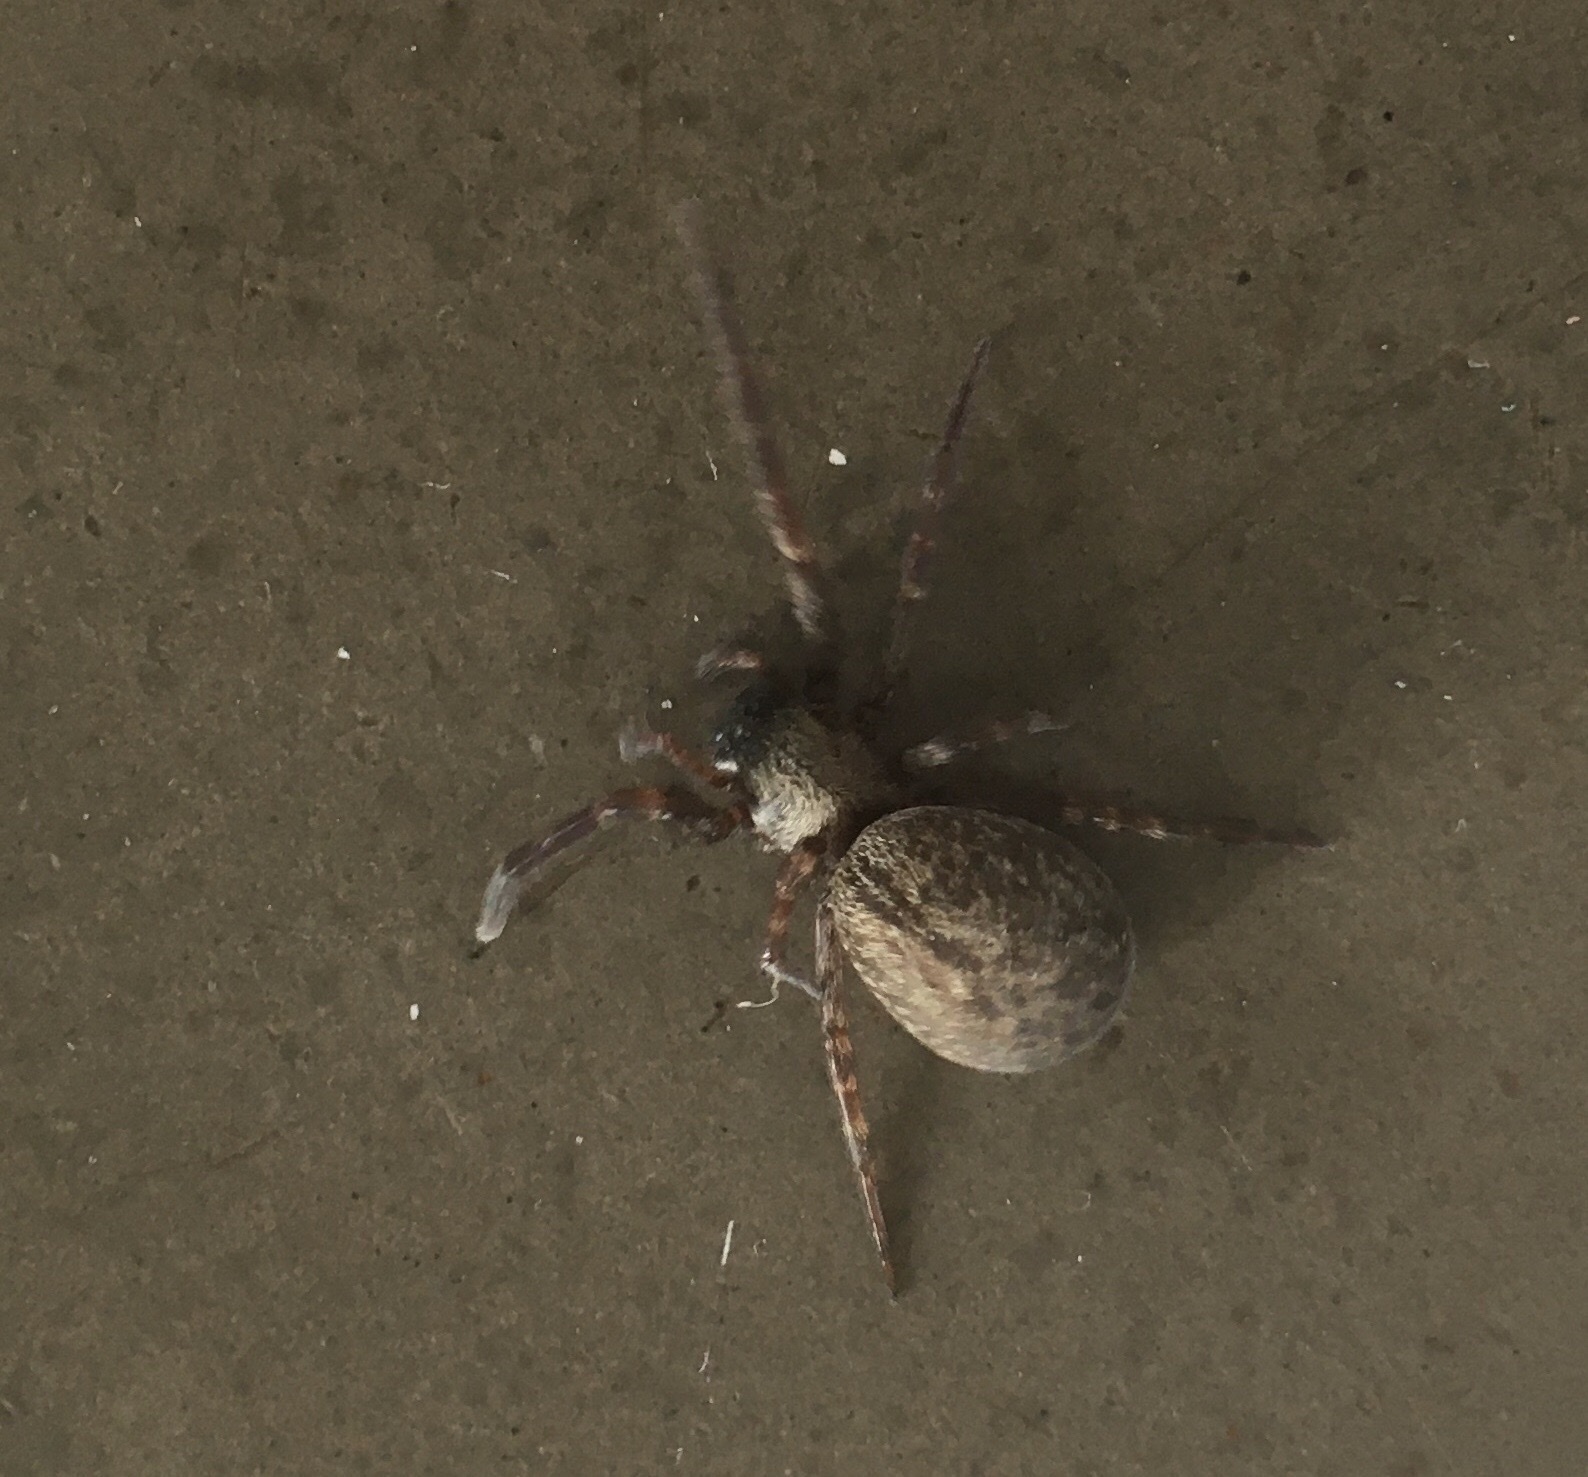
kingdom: Animalia
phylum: Arthropoda
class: Arachnida
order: Araneae
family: Desidae
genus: Badumna
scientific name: Badumna longinqua
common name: Gray house spider
